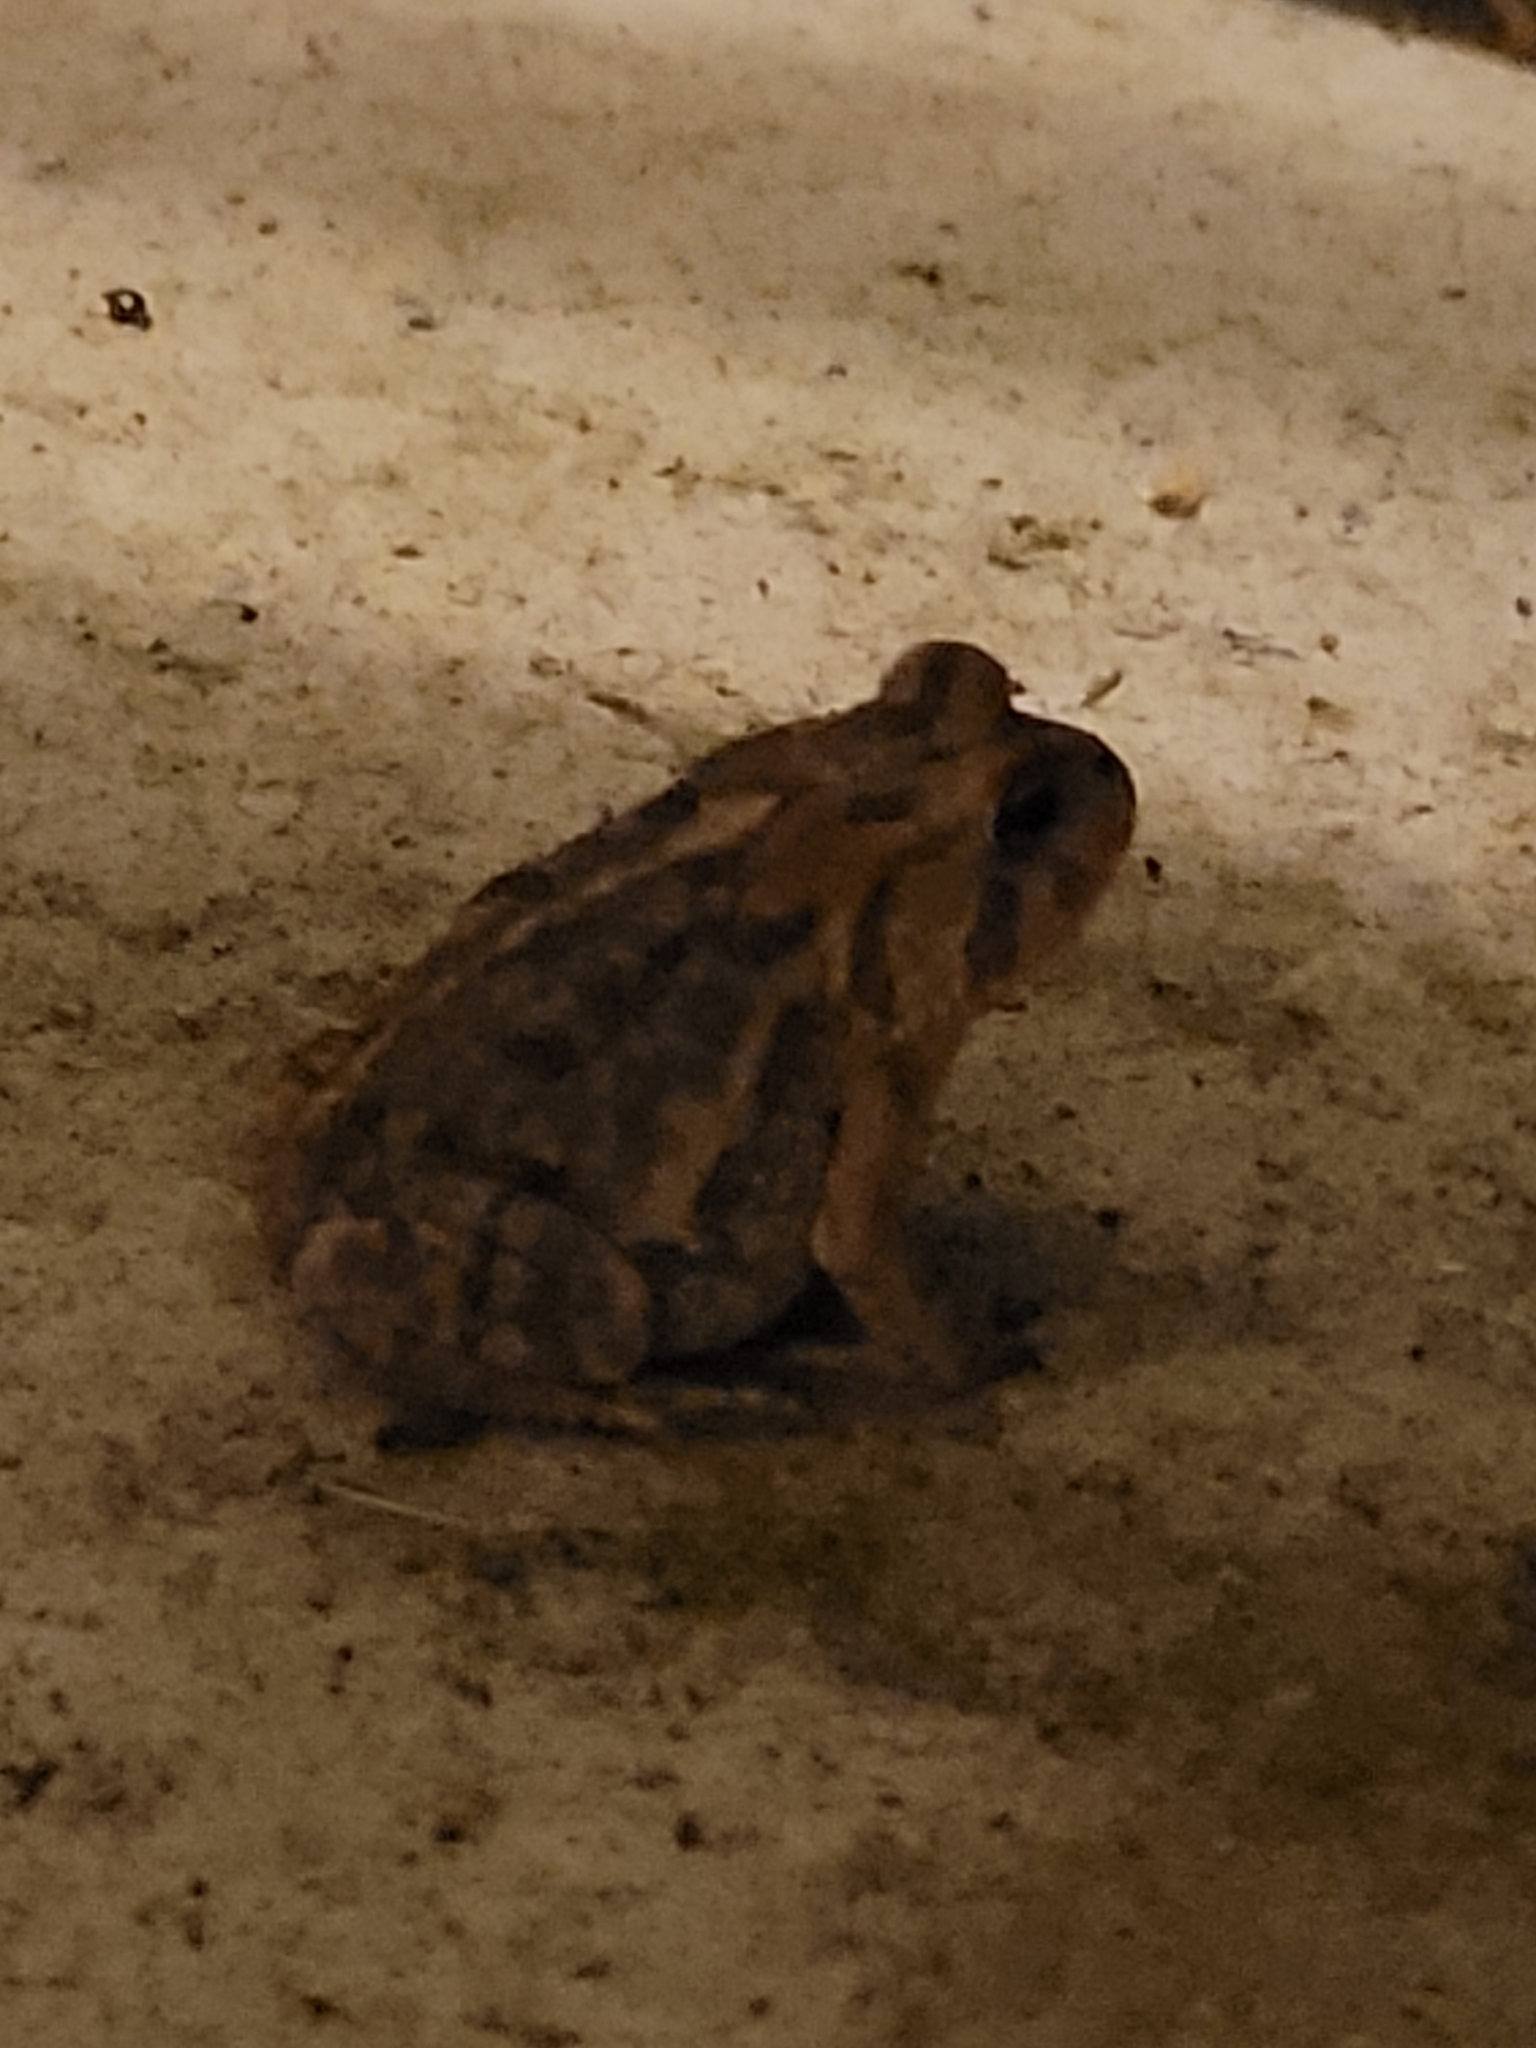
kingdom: Animalia
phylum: Chordata
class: Amphibia
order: Anura
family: Bufonidae
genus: Anaxyrus
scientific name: Anaxyrus terrestris
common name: Southern toad
